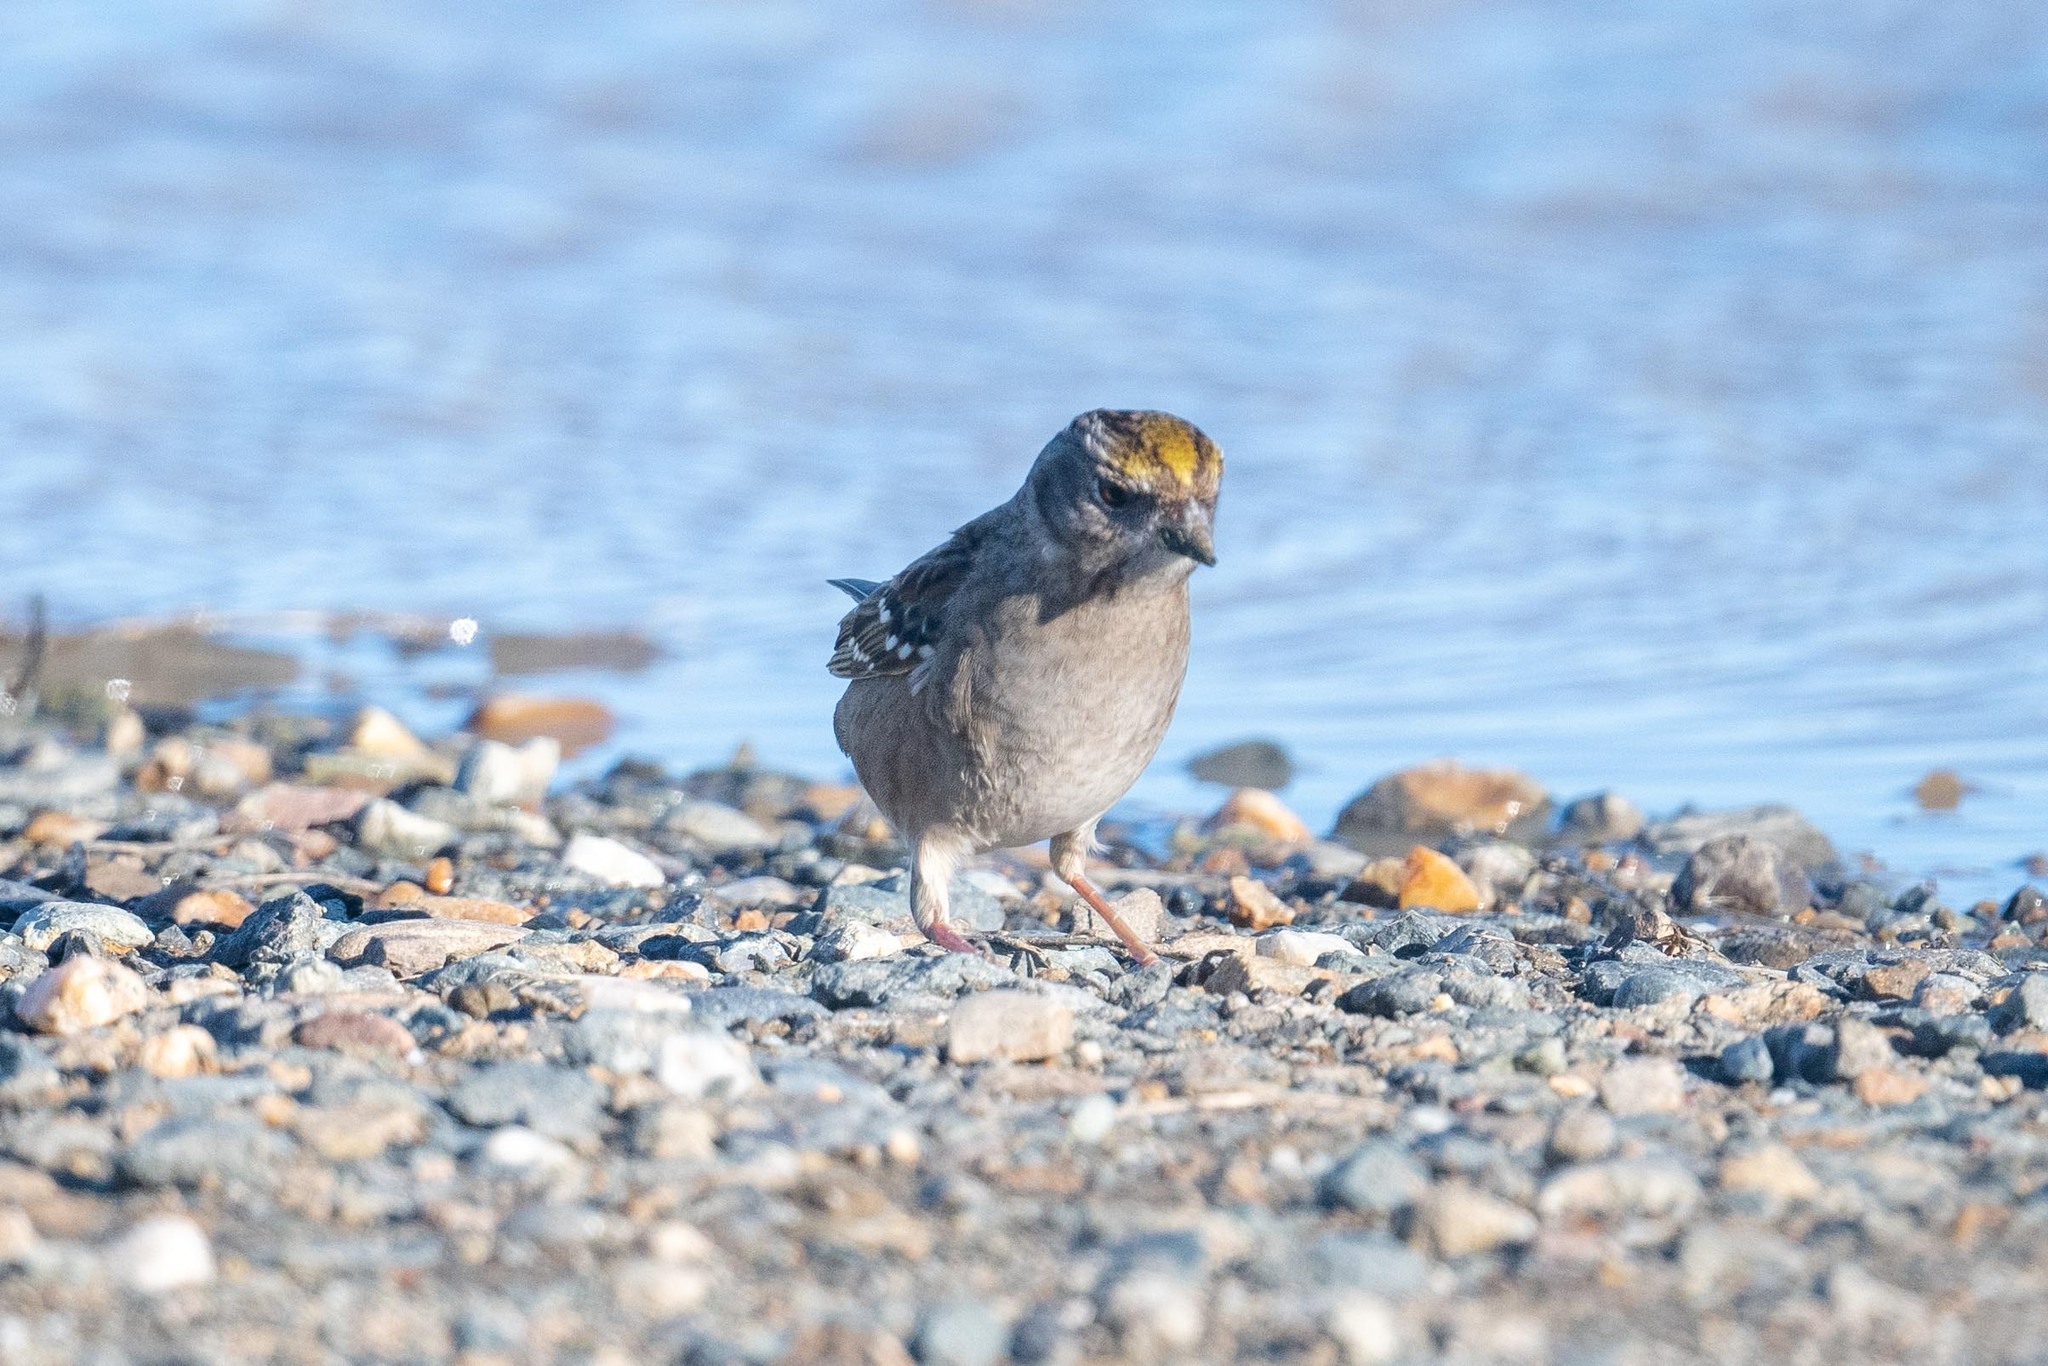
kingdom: Animalia
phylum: Chordata
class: Aves
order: Passeriformes
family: Passerellidae
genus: Zonotrichia
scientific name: Zonotrichia atricapilla
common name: Golden-crowned sparrow
